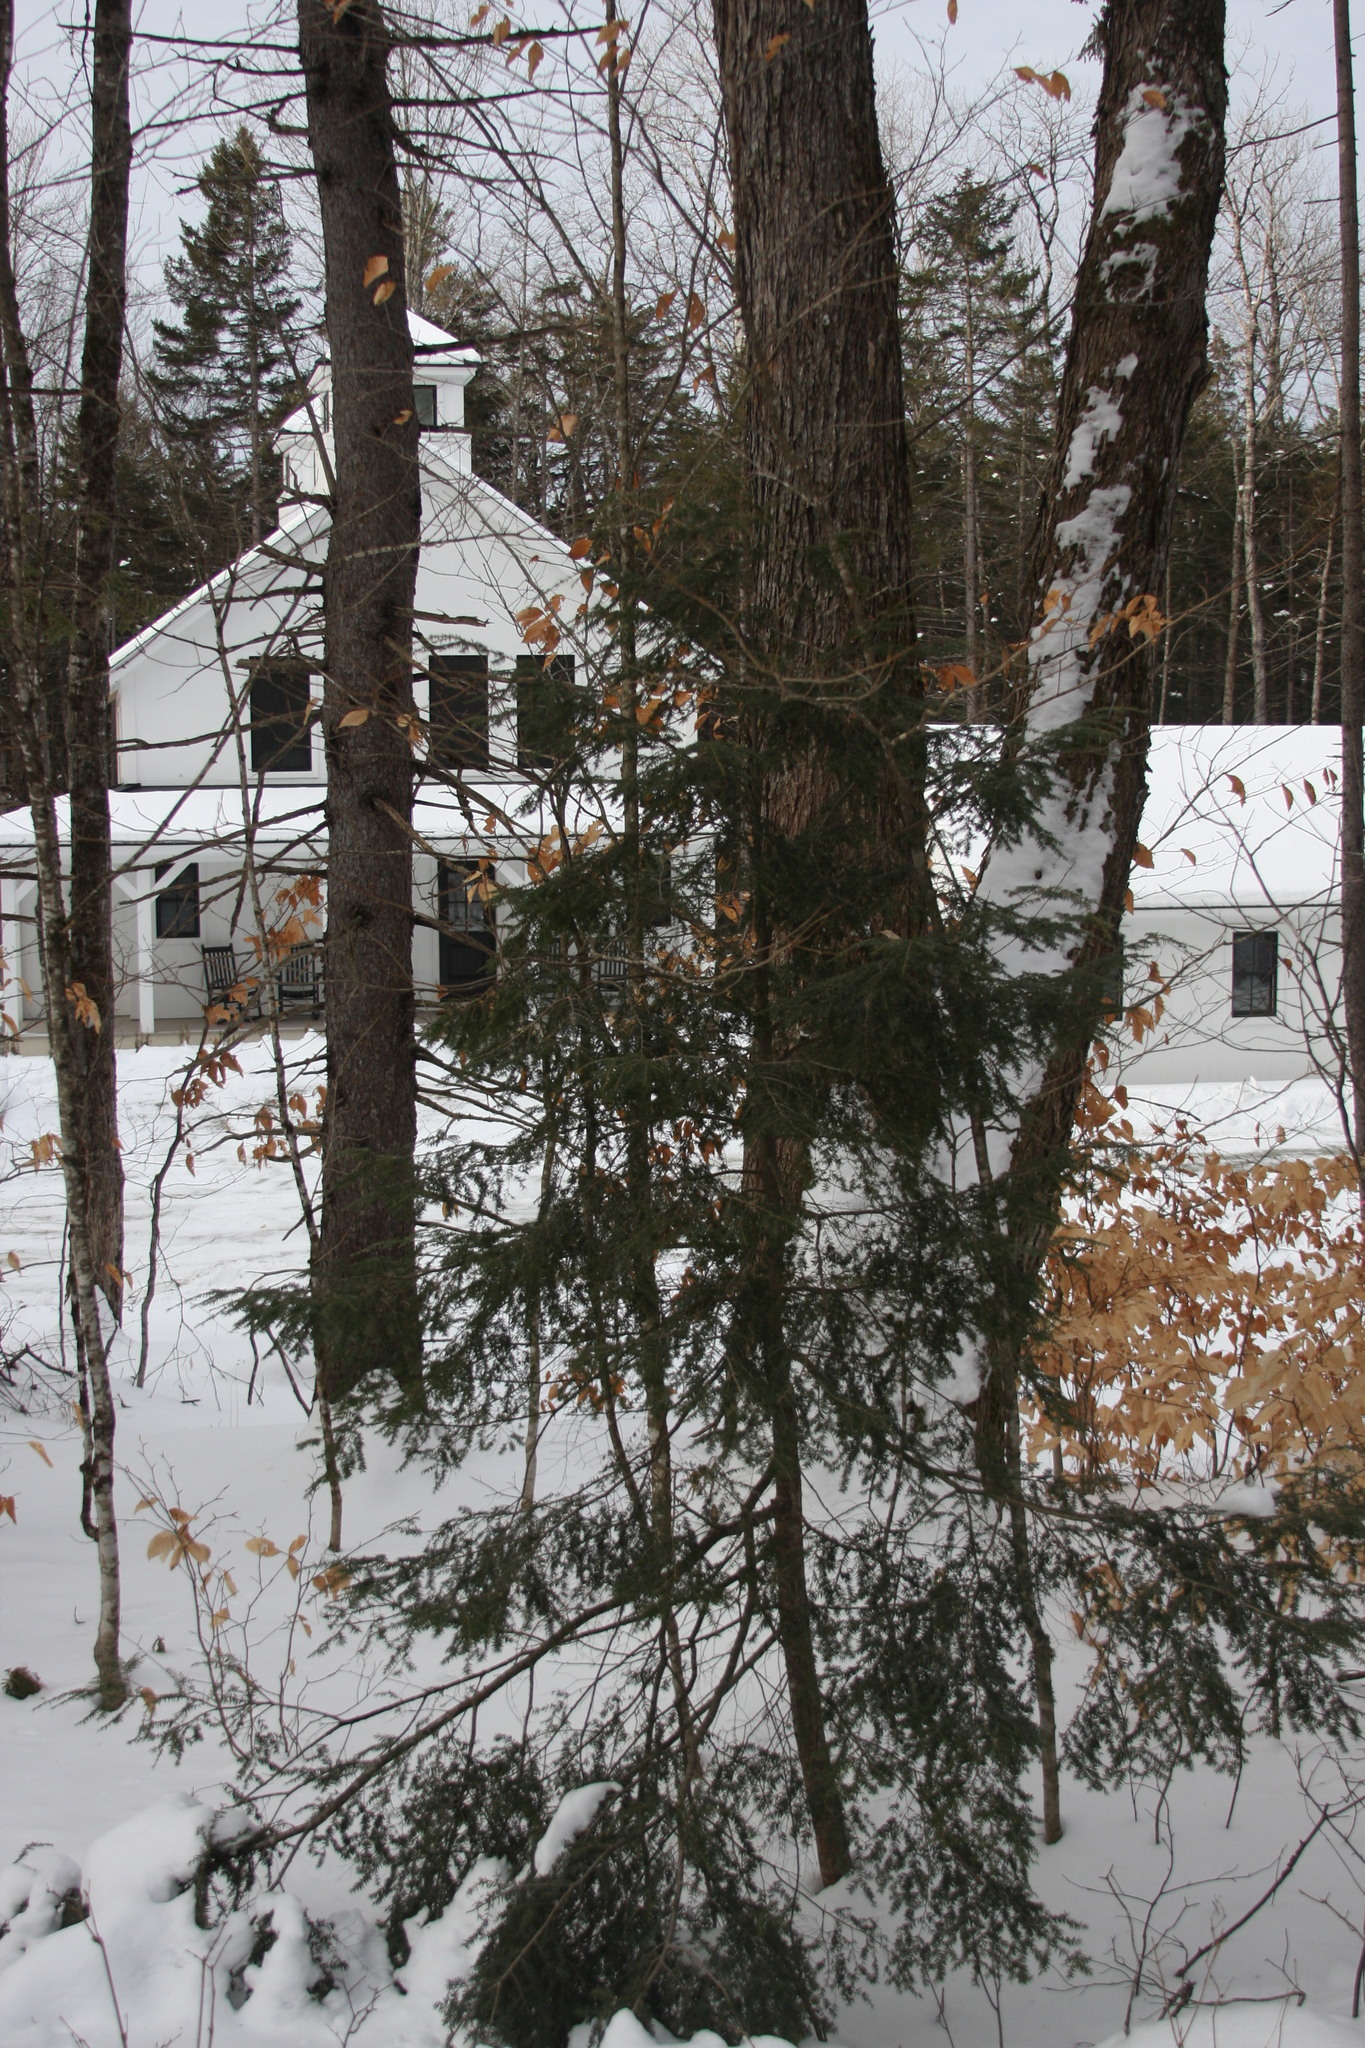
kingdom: Plantae
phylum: Tracheophyta
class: Pinopsida
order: Pinales
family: Pinaceae
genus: Tsuga
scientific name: Tsuga canadensis
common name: Eastern hemlock
